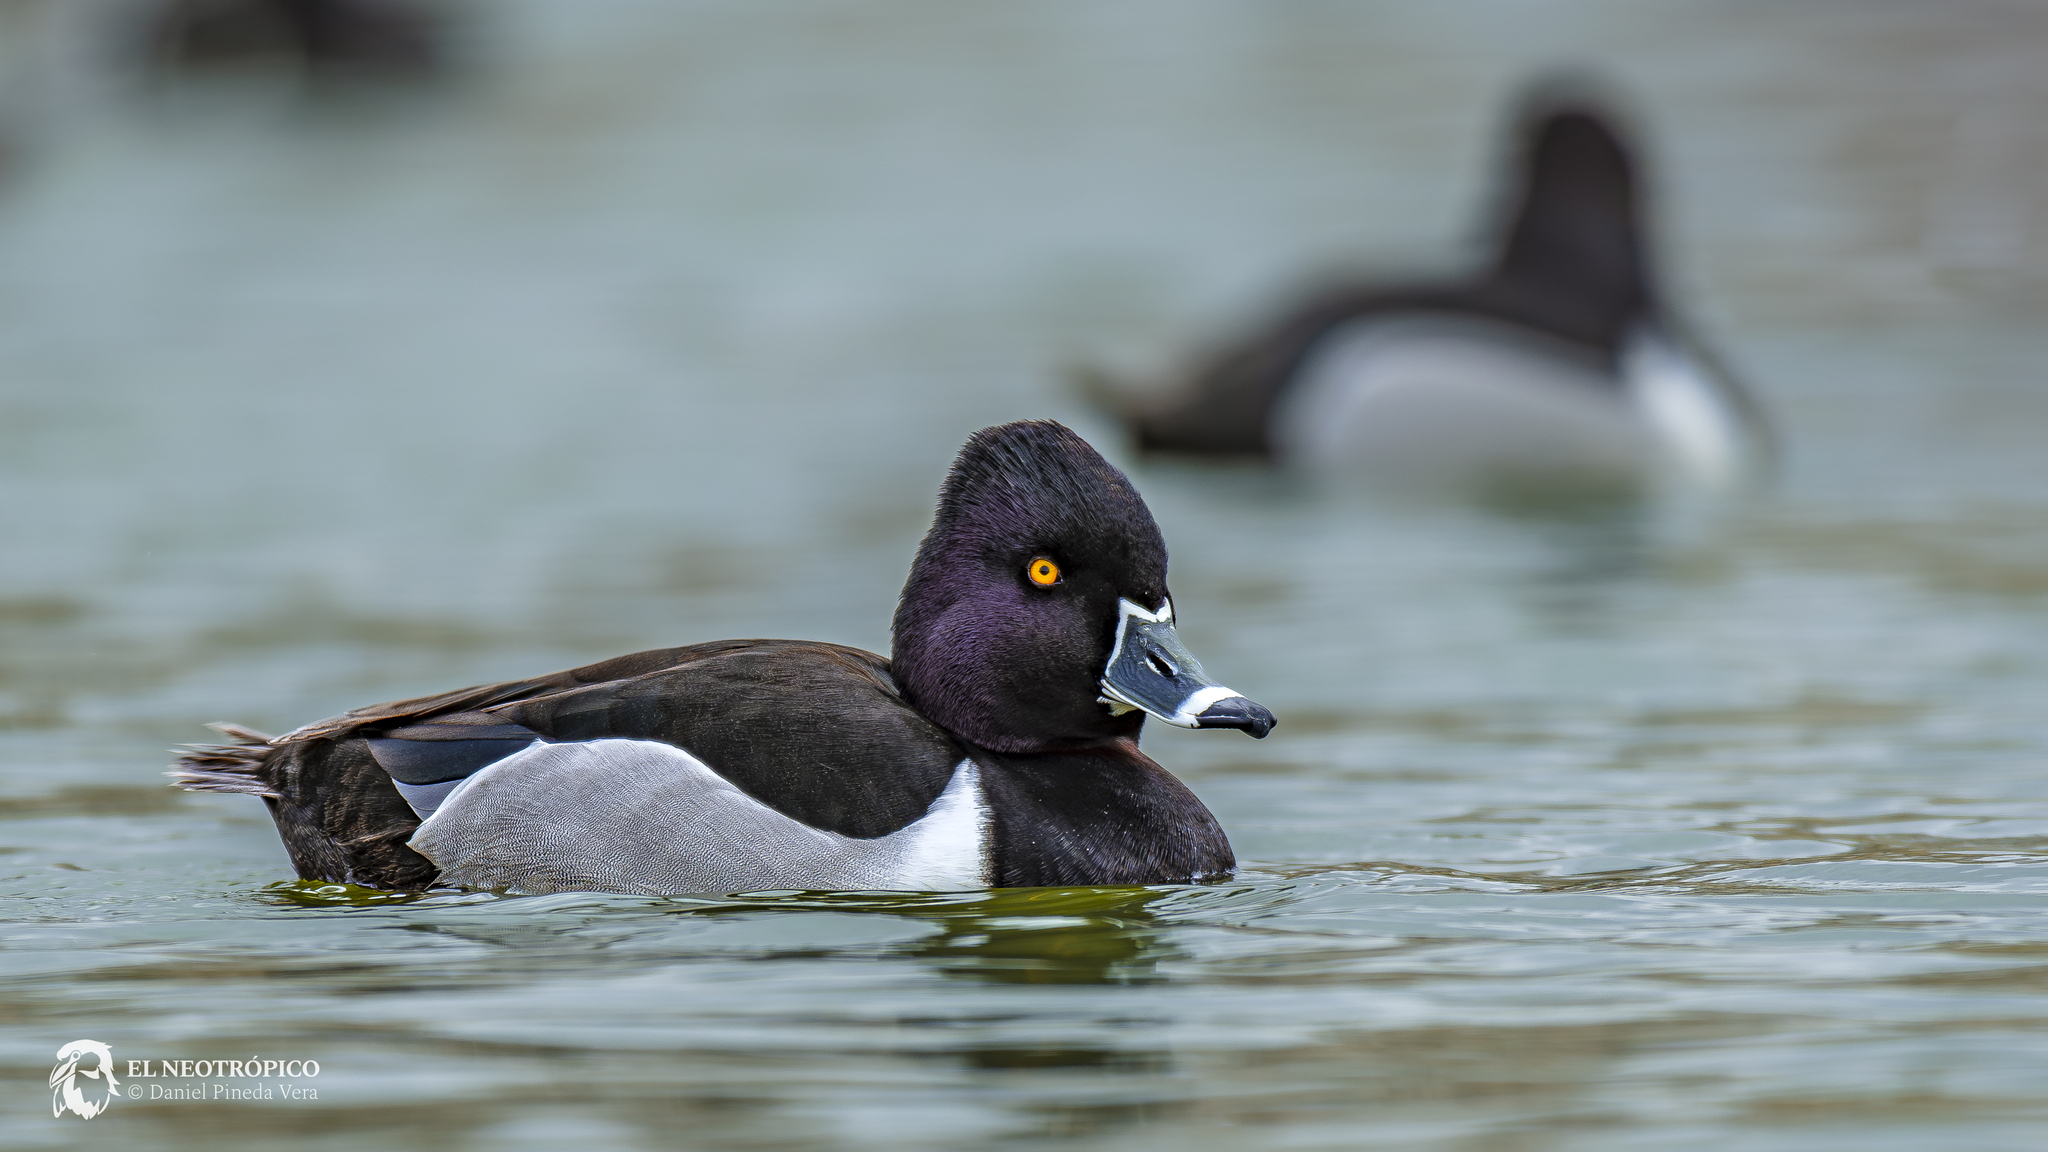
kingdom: Animalia
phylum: Chordata
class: Aves
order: Anseriformes
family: Anatidae
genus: Aythya
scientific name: Aythya collaris
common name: Ring-necked duck
